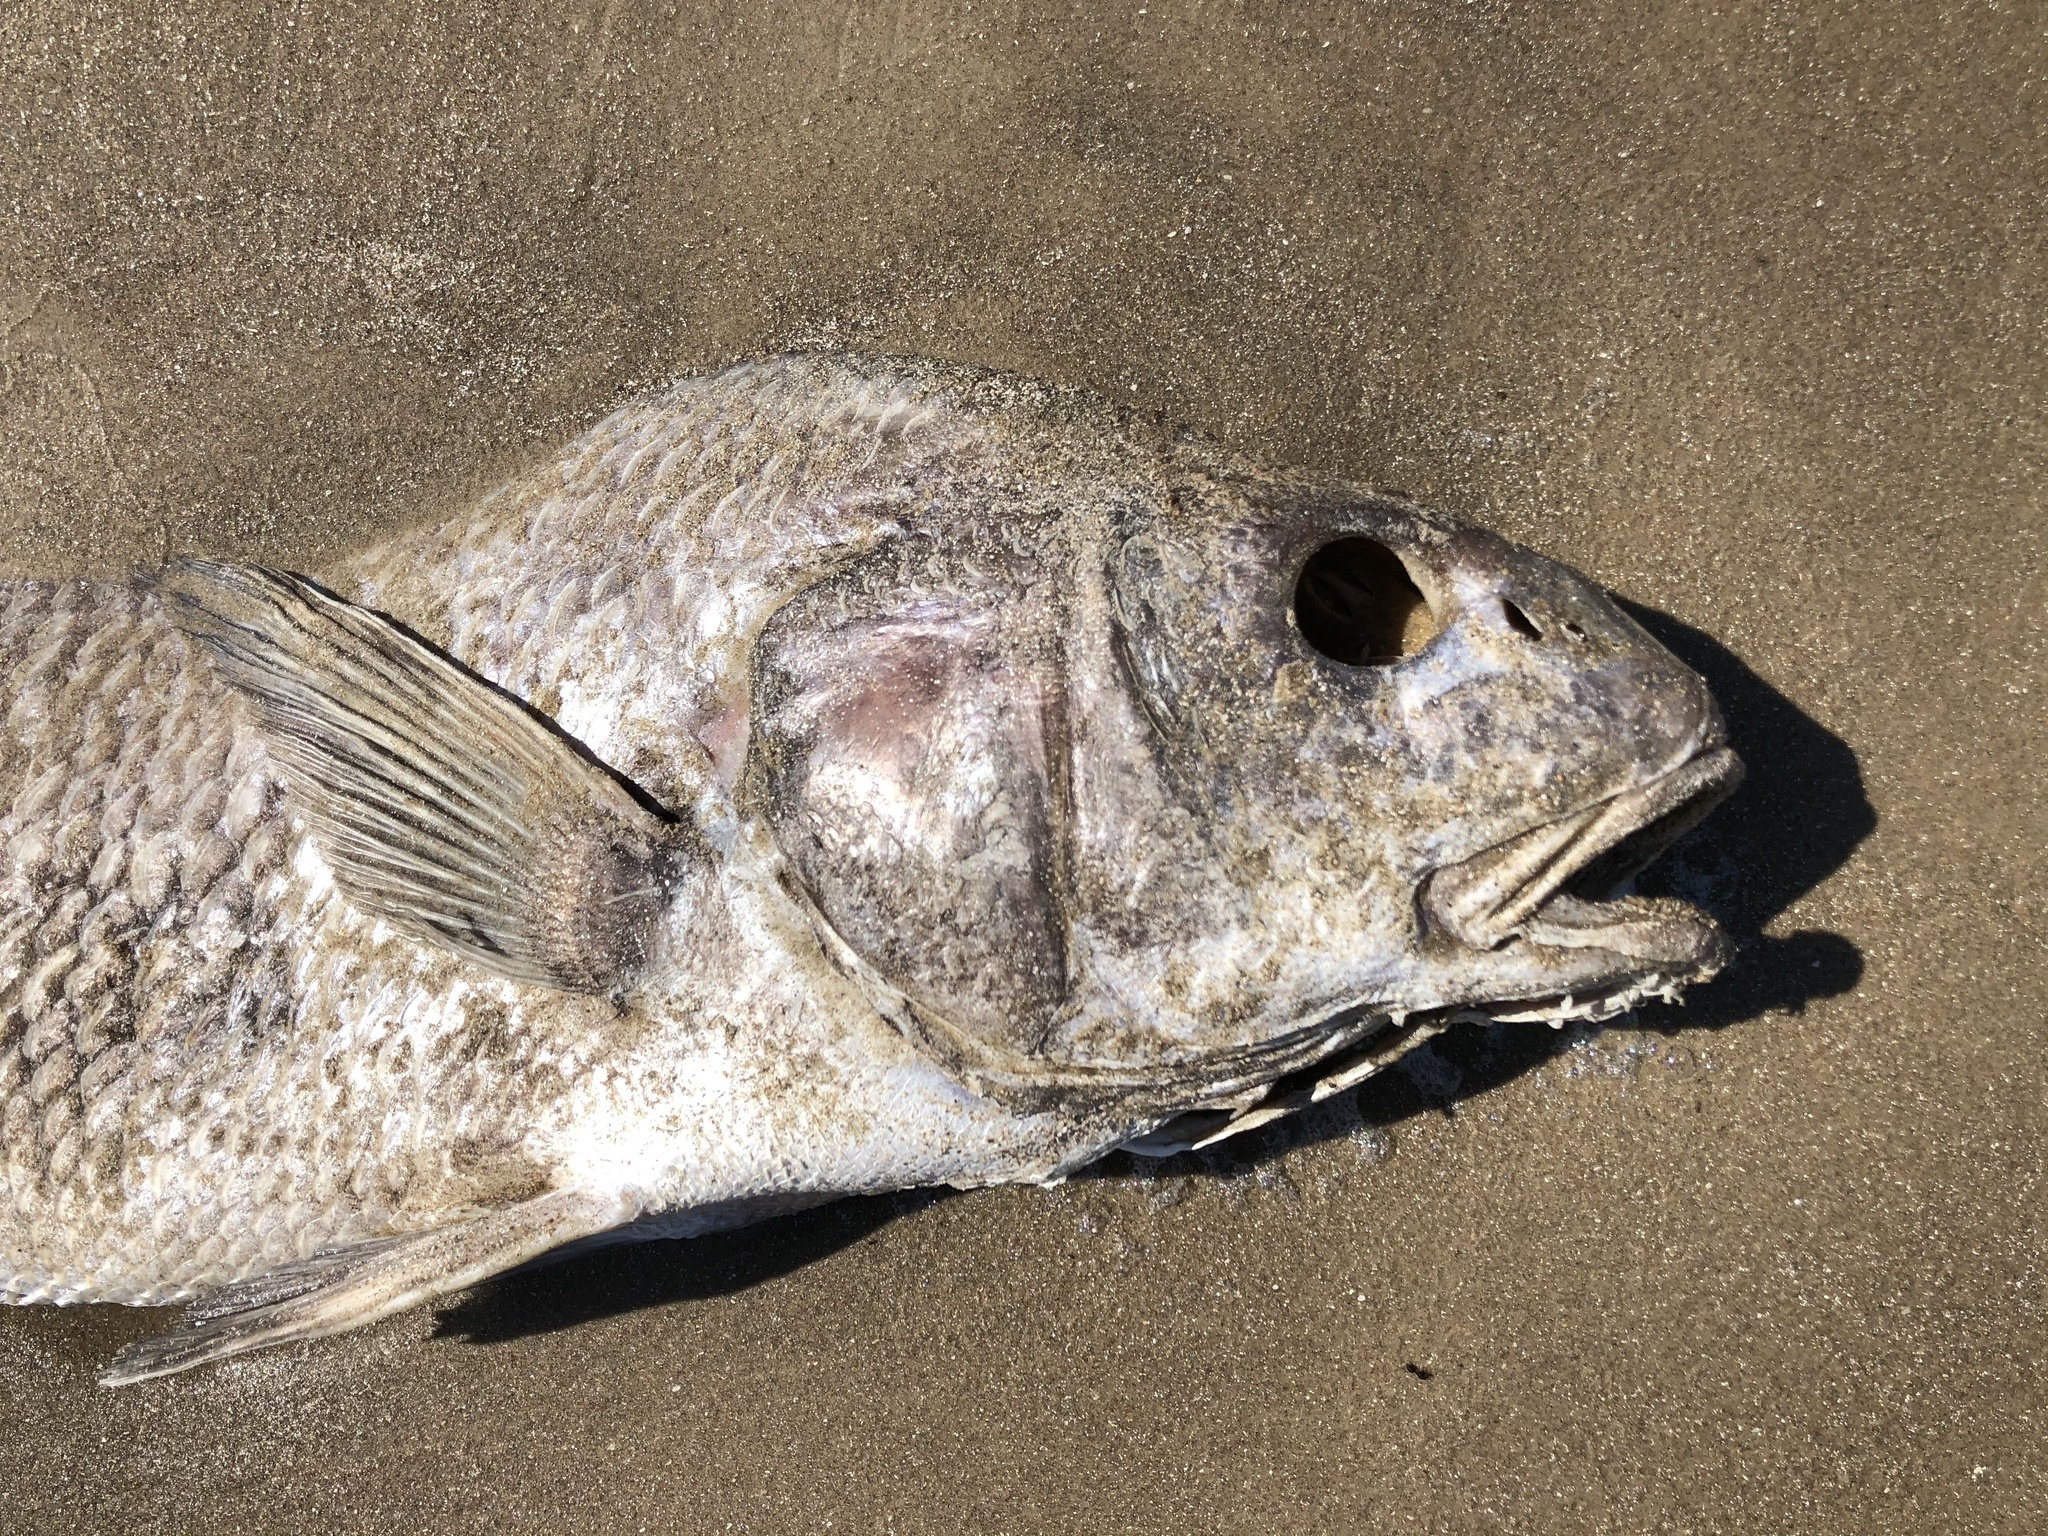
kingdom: Animalia
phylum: Chordata
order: Perciformes
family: Sciaenidae
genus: Pogonias
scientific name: Pogonias cromis
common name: Black drum
